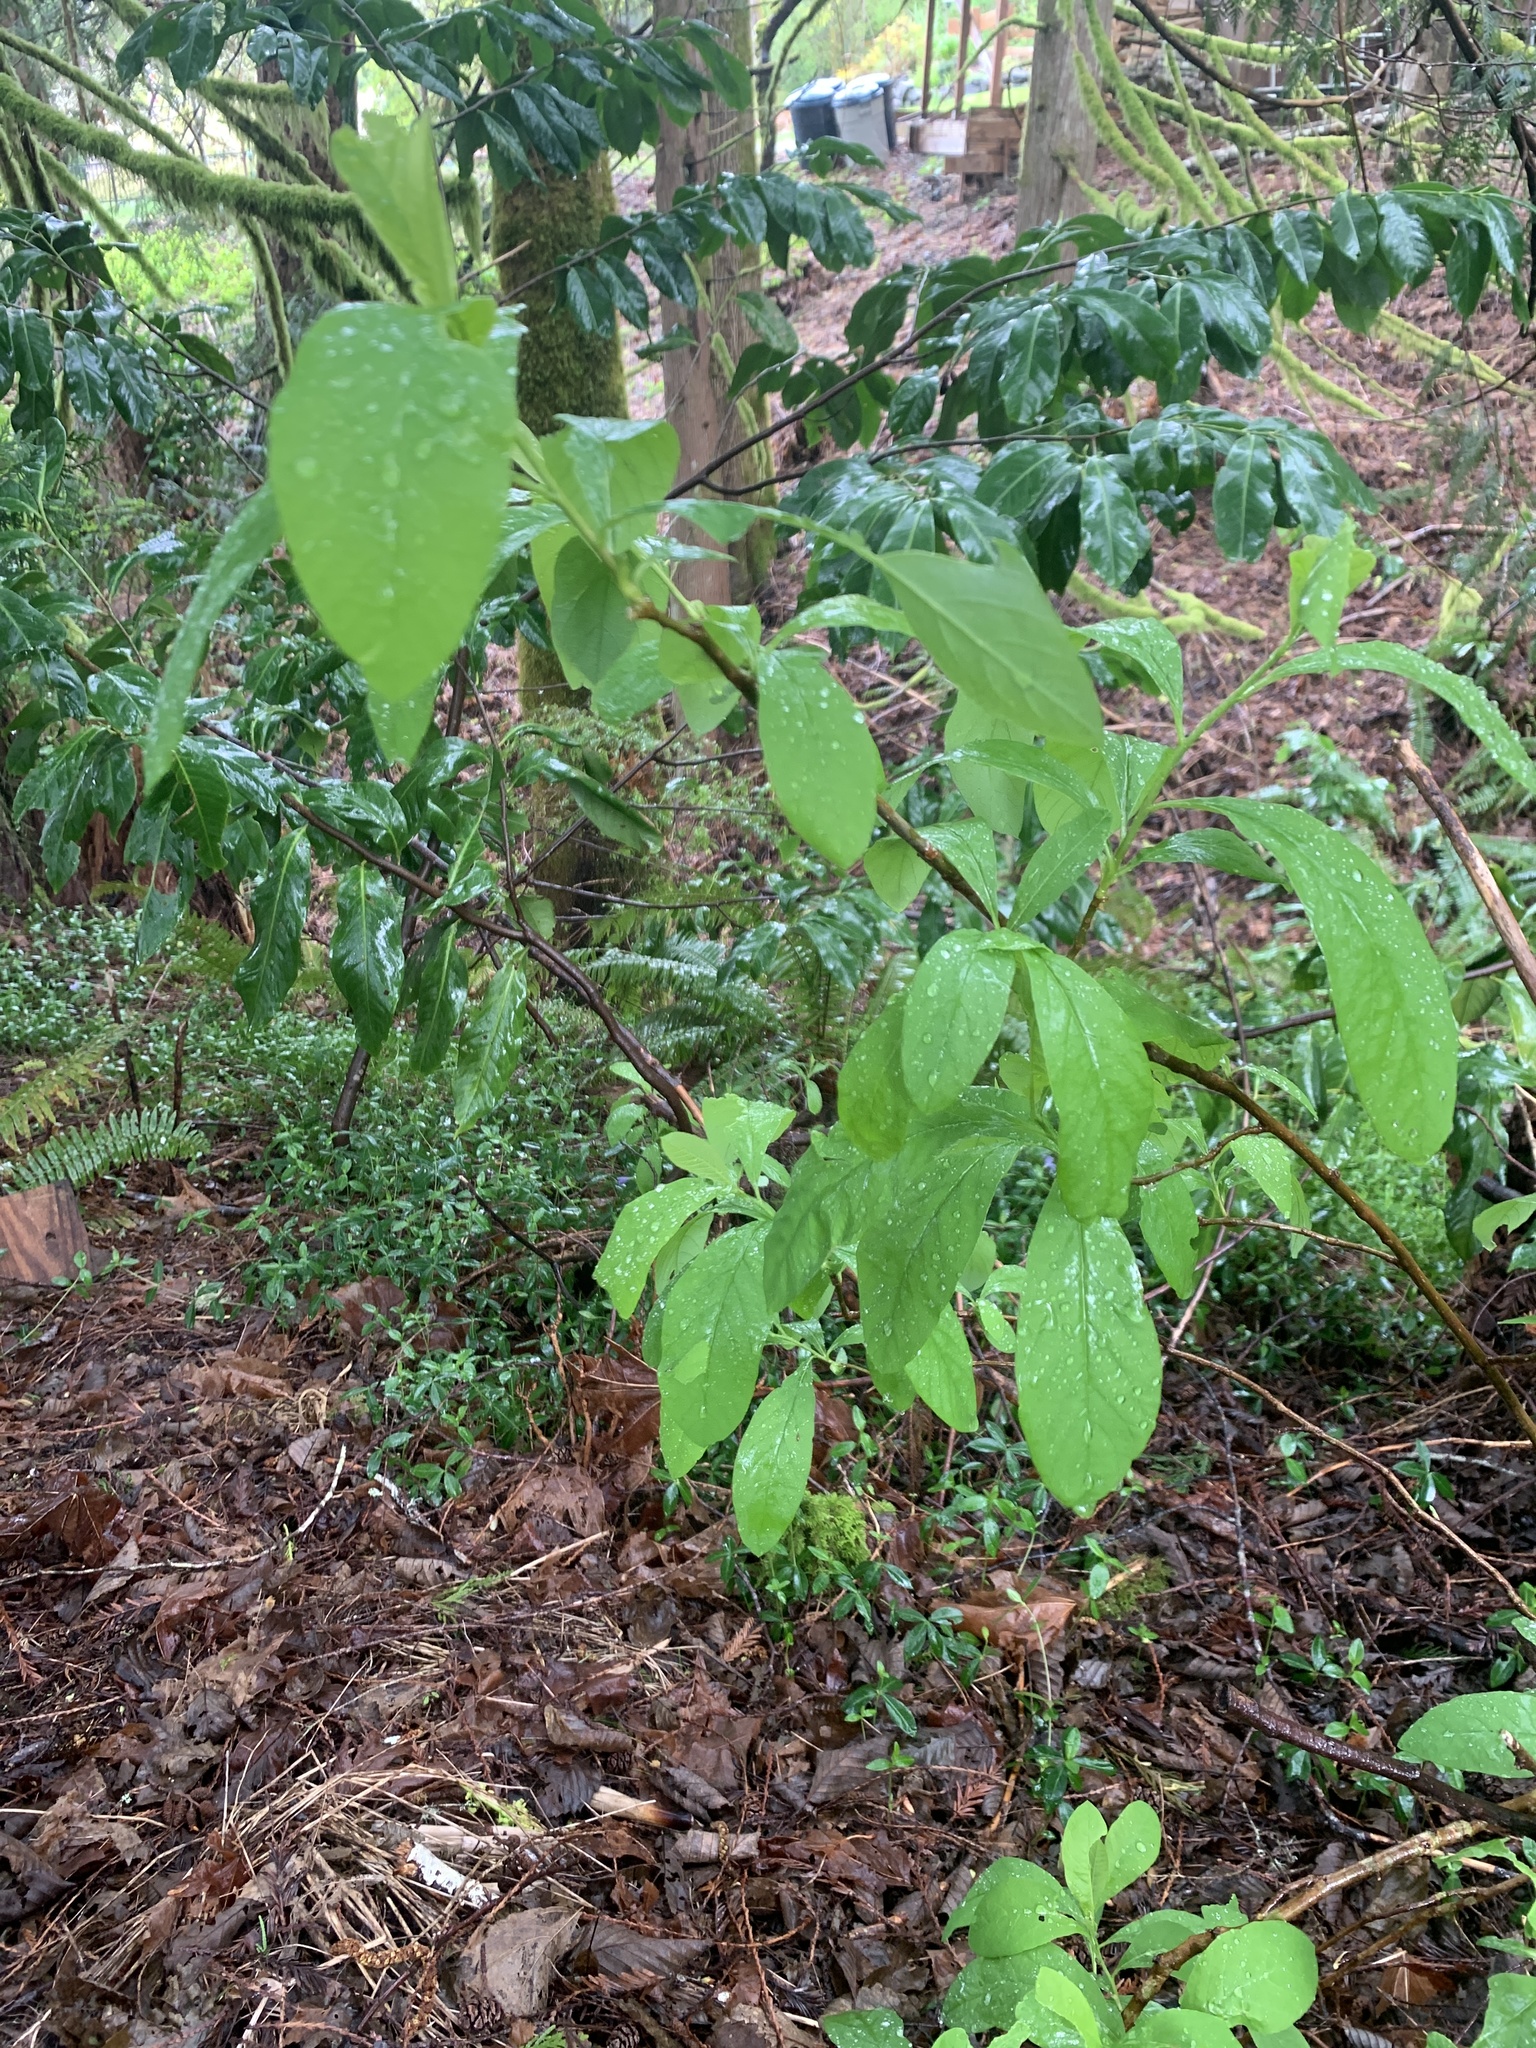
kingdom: Plantae
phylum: Tracheophyta
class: Magnoliopsida
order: Rosales
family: Rosaceae
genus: Oemleria
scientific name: Oemleria cerasiformis
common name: Osoberry
